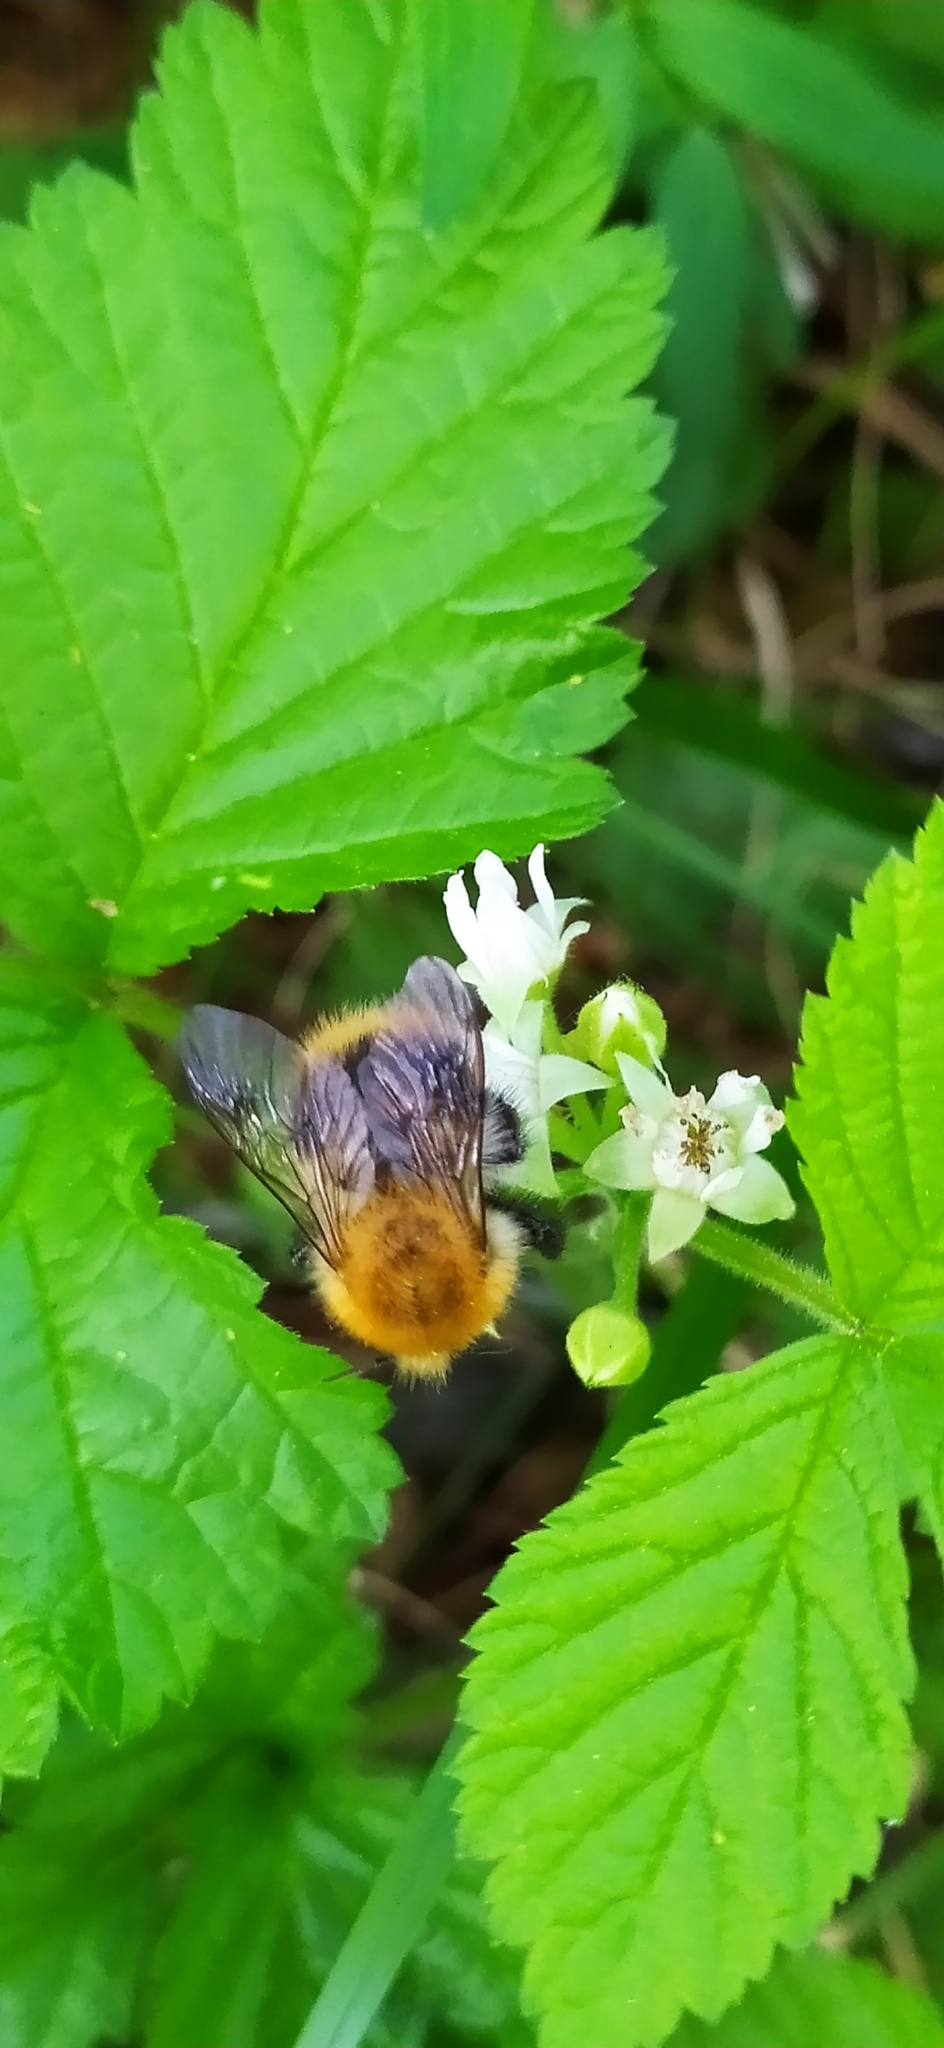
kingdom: Animalia
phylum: Arthropoda
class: Insecta
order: Hymenoptera
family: Apidae
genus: Bombus
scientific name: Bombus pascuorum
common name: Common carder bee
